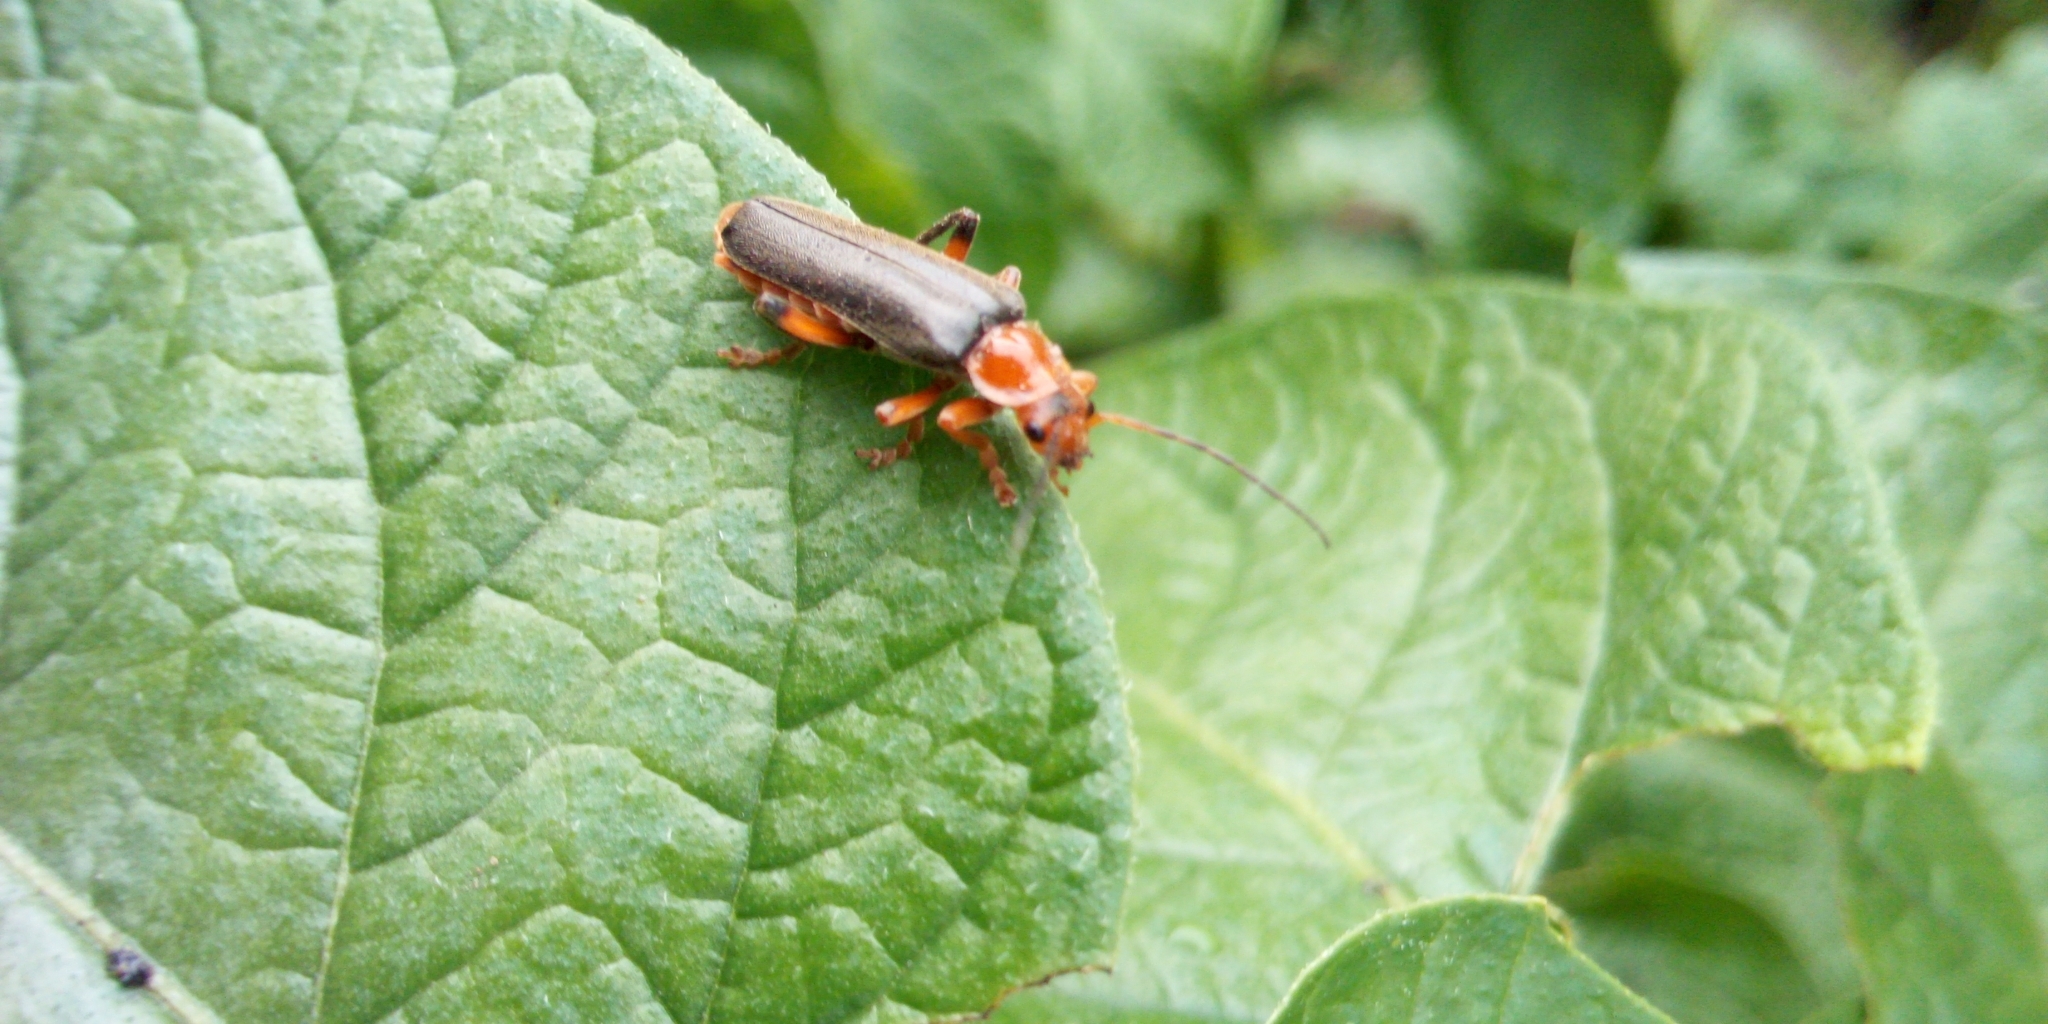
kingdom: Animalia
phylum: Arthropoda
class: Insecta
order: Coleoptera
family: Cantharidae
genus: Cantharis
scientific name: Cantharis livida
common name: Livid soldier beetle
